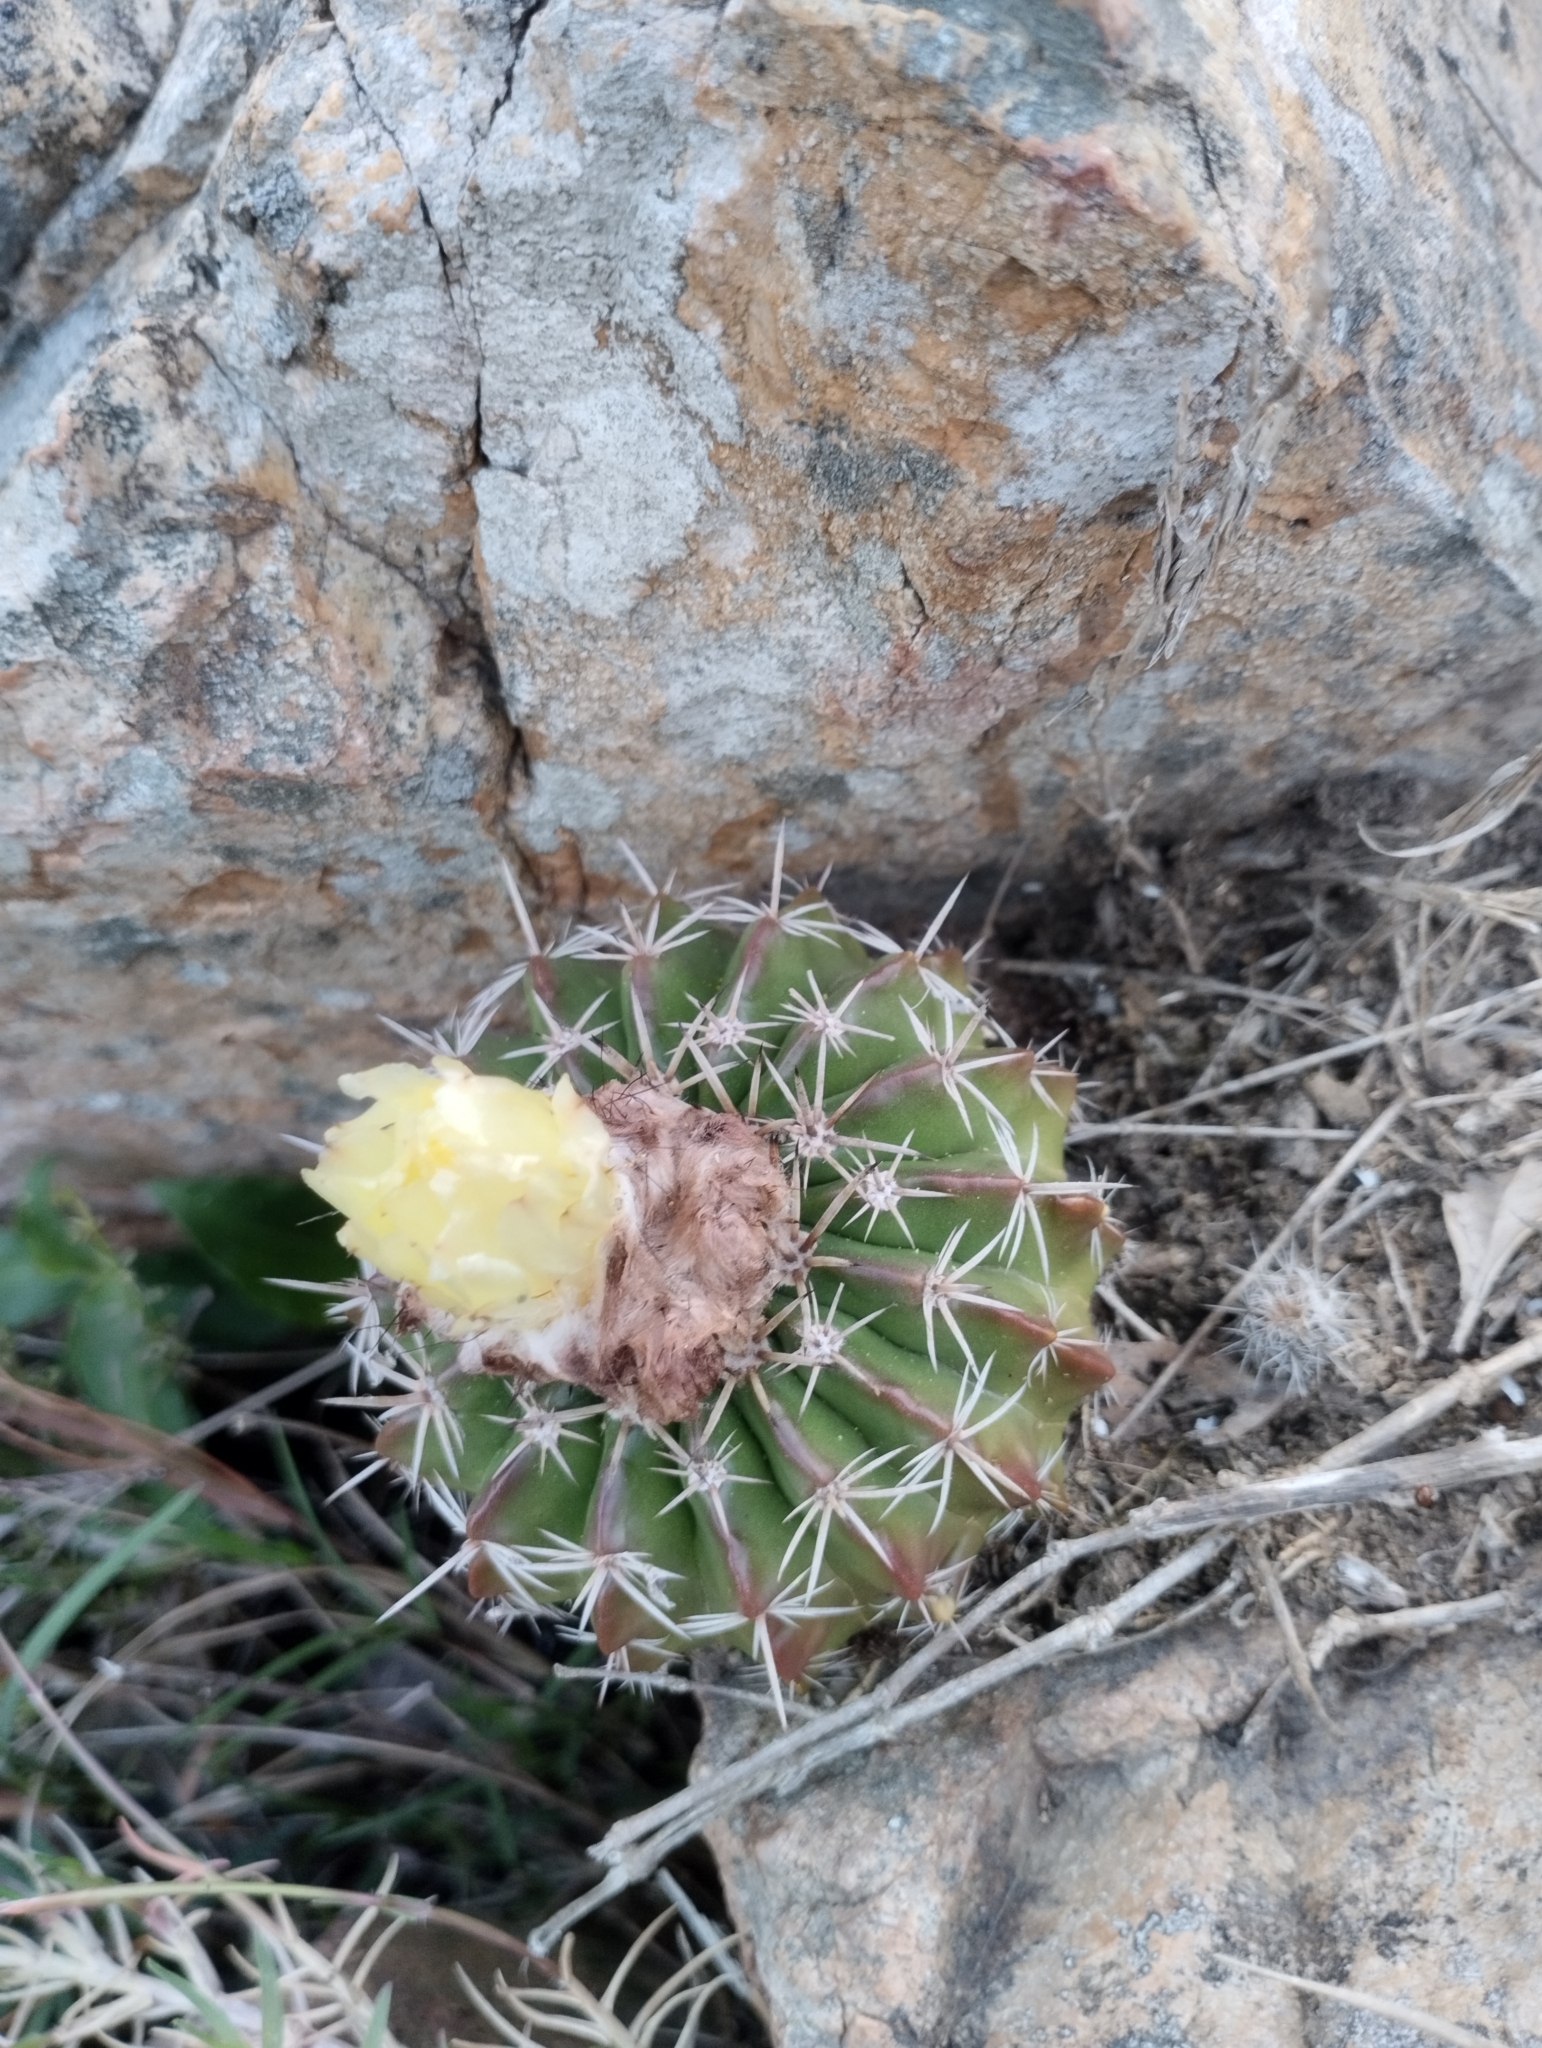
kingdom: Plantae
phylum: Tracheophyta
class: Magnoliopsida
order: Caryophyllales
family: Cactaceae
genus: Parodia
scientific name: Parodia erinacea
